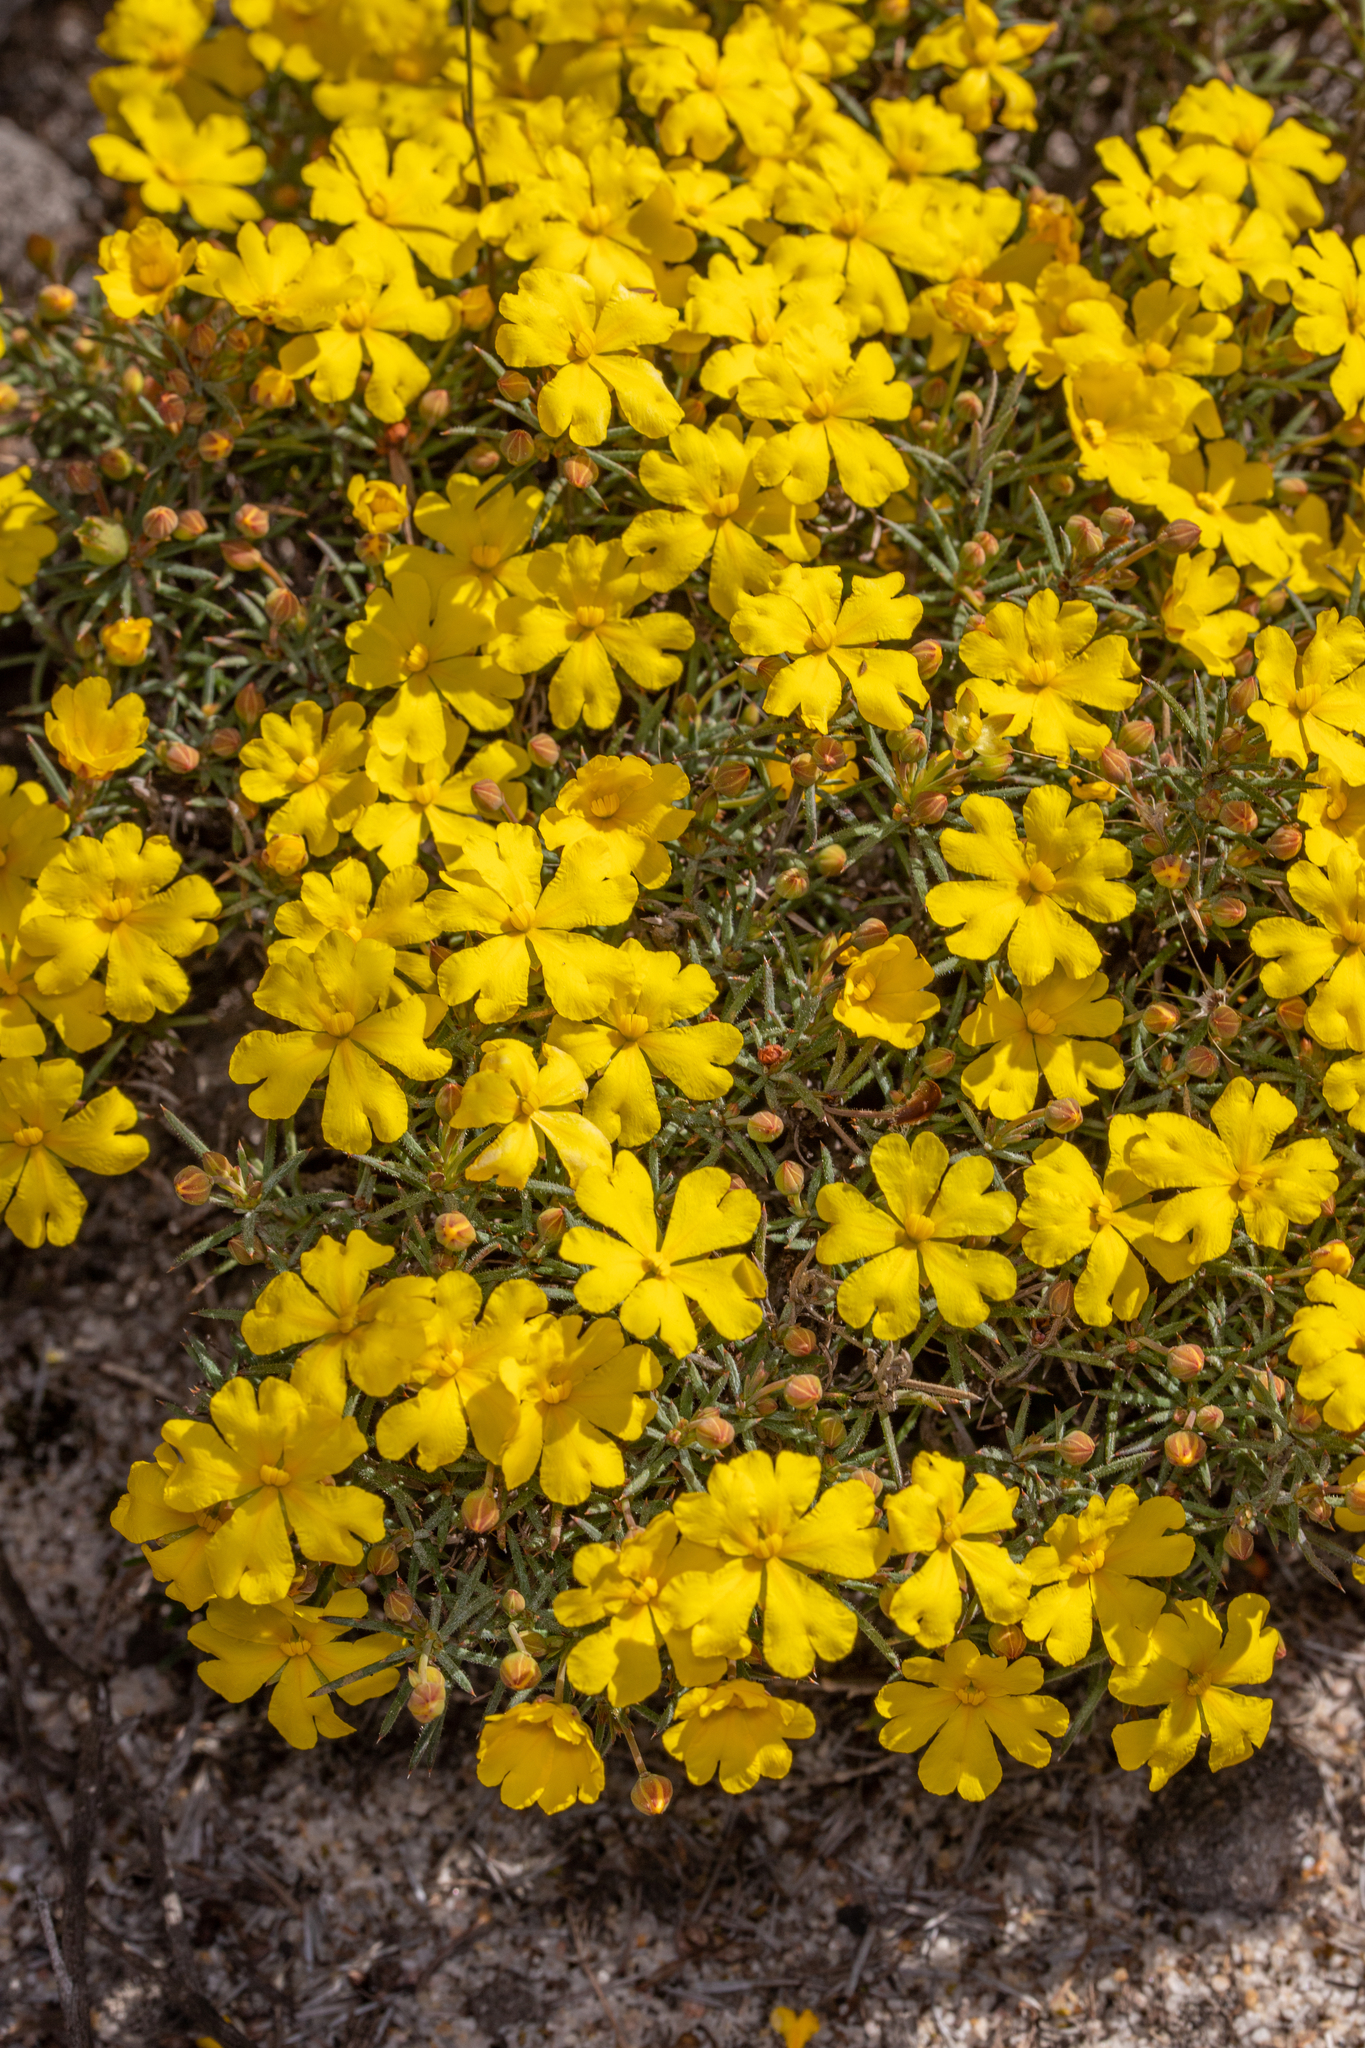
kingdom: Plantae
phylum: Tracheophyta
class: Magnoliopsida
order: Dilleniales
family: Dilleniaceae
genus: Hibbertia
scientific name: Hibbertia
